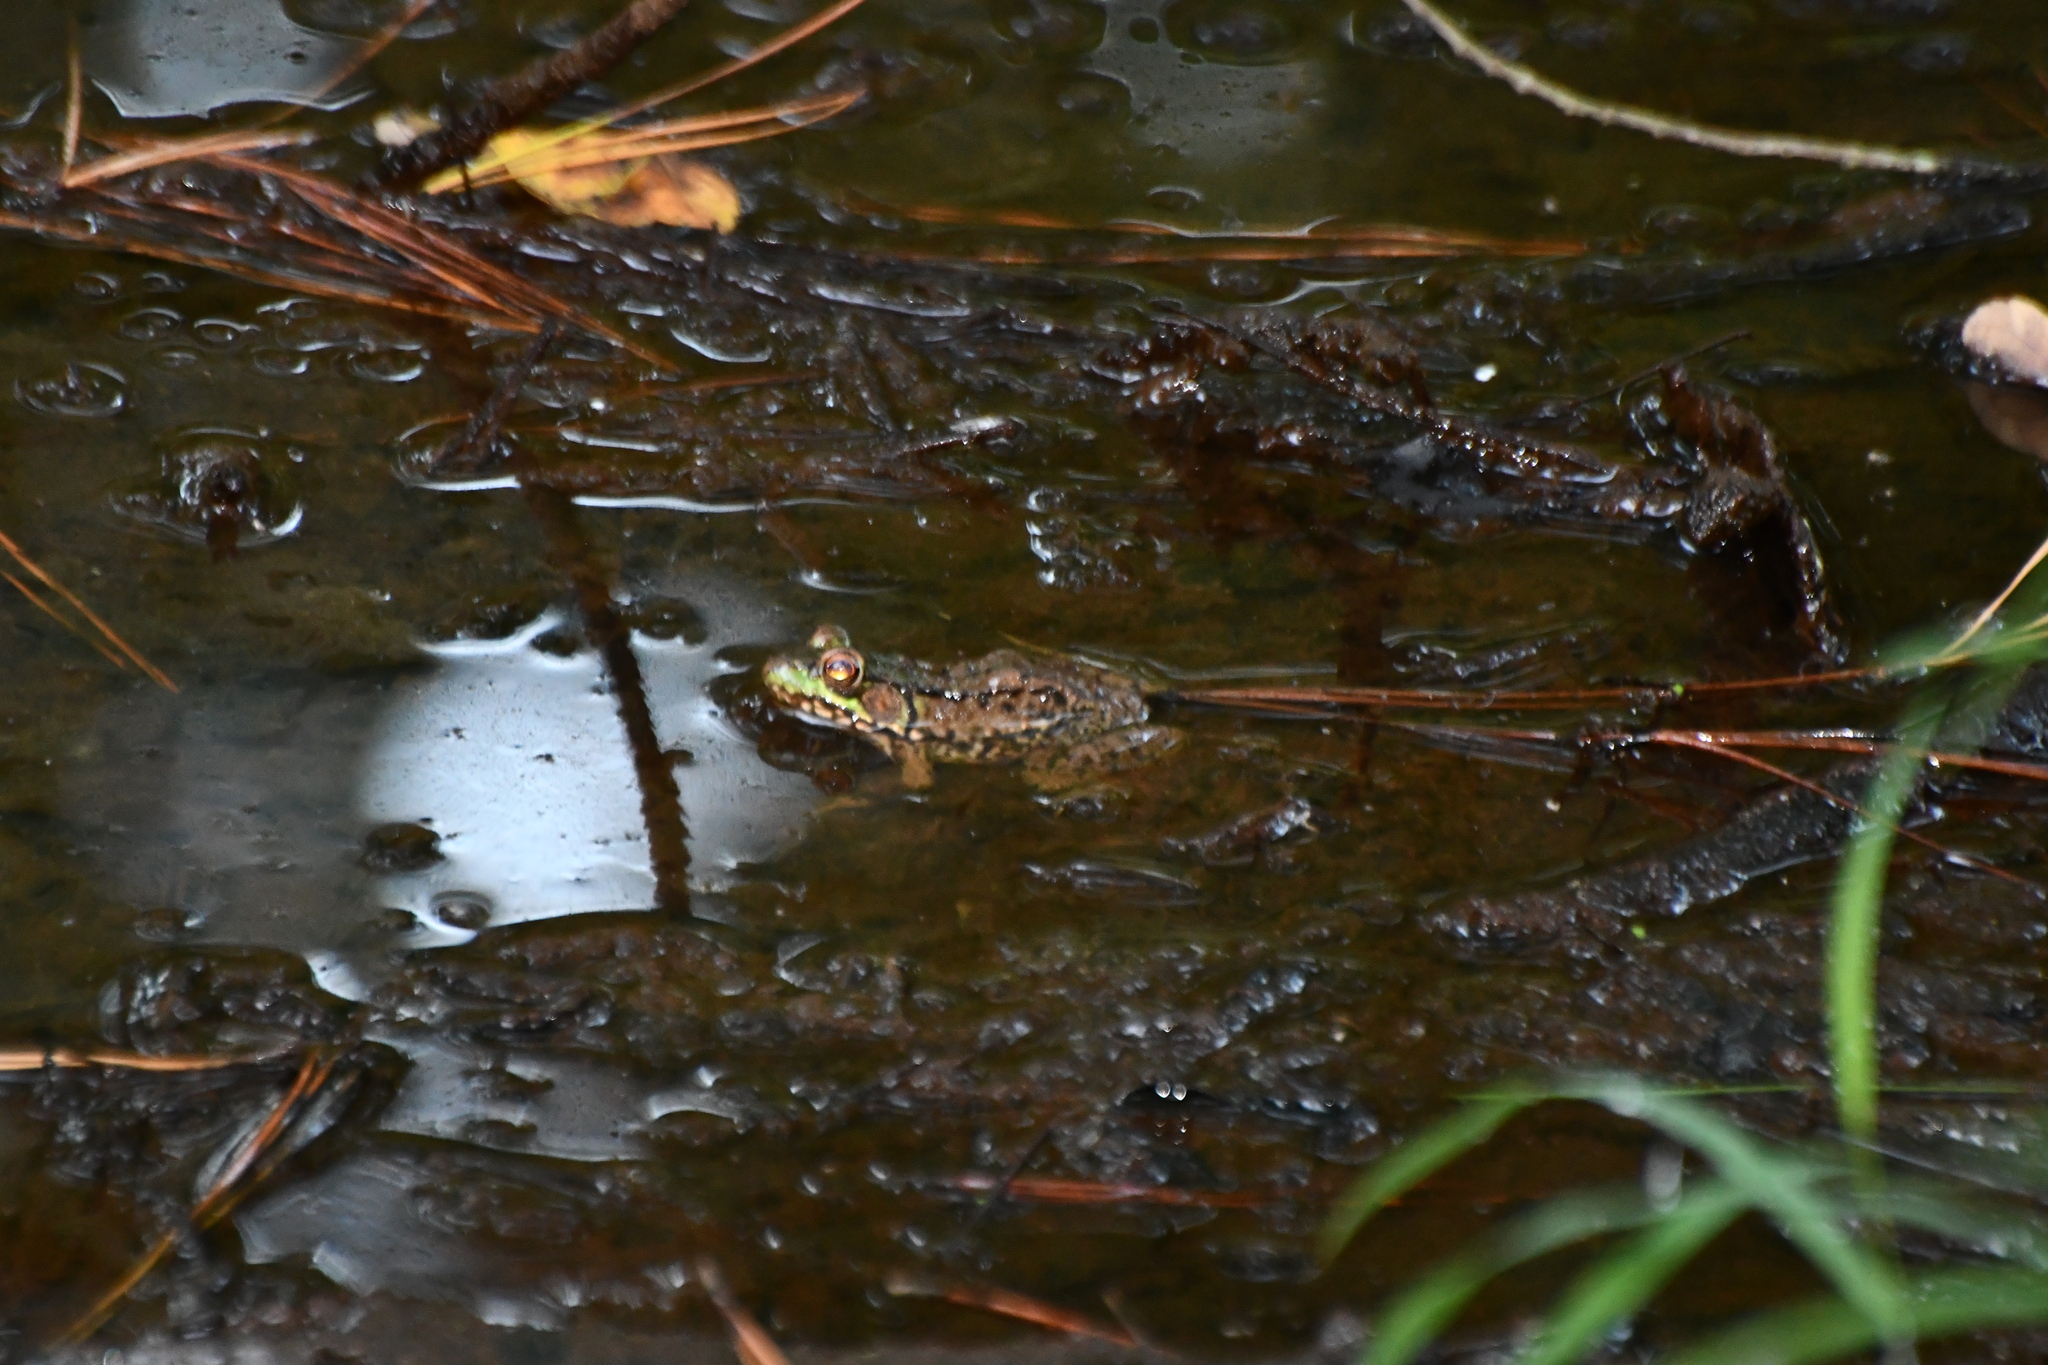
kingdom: Animalia
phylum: Chordata
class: Amphibia
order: Anura
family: Ranidae
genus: Lithobates
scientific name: Lithobates clamitans
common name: Green frog
